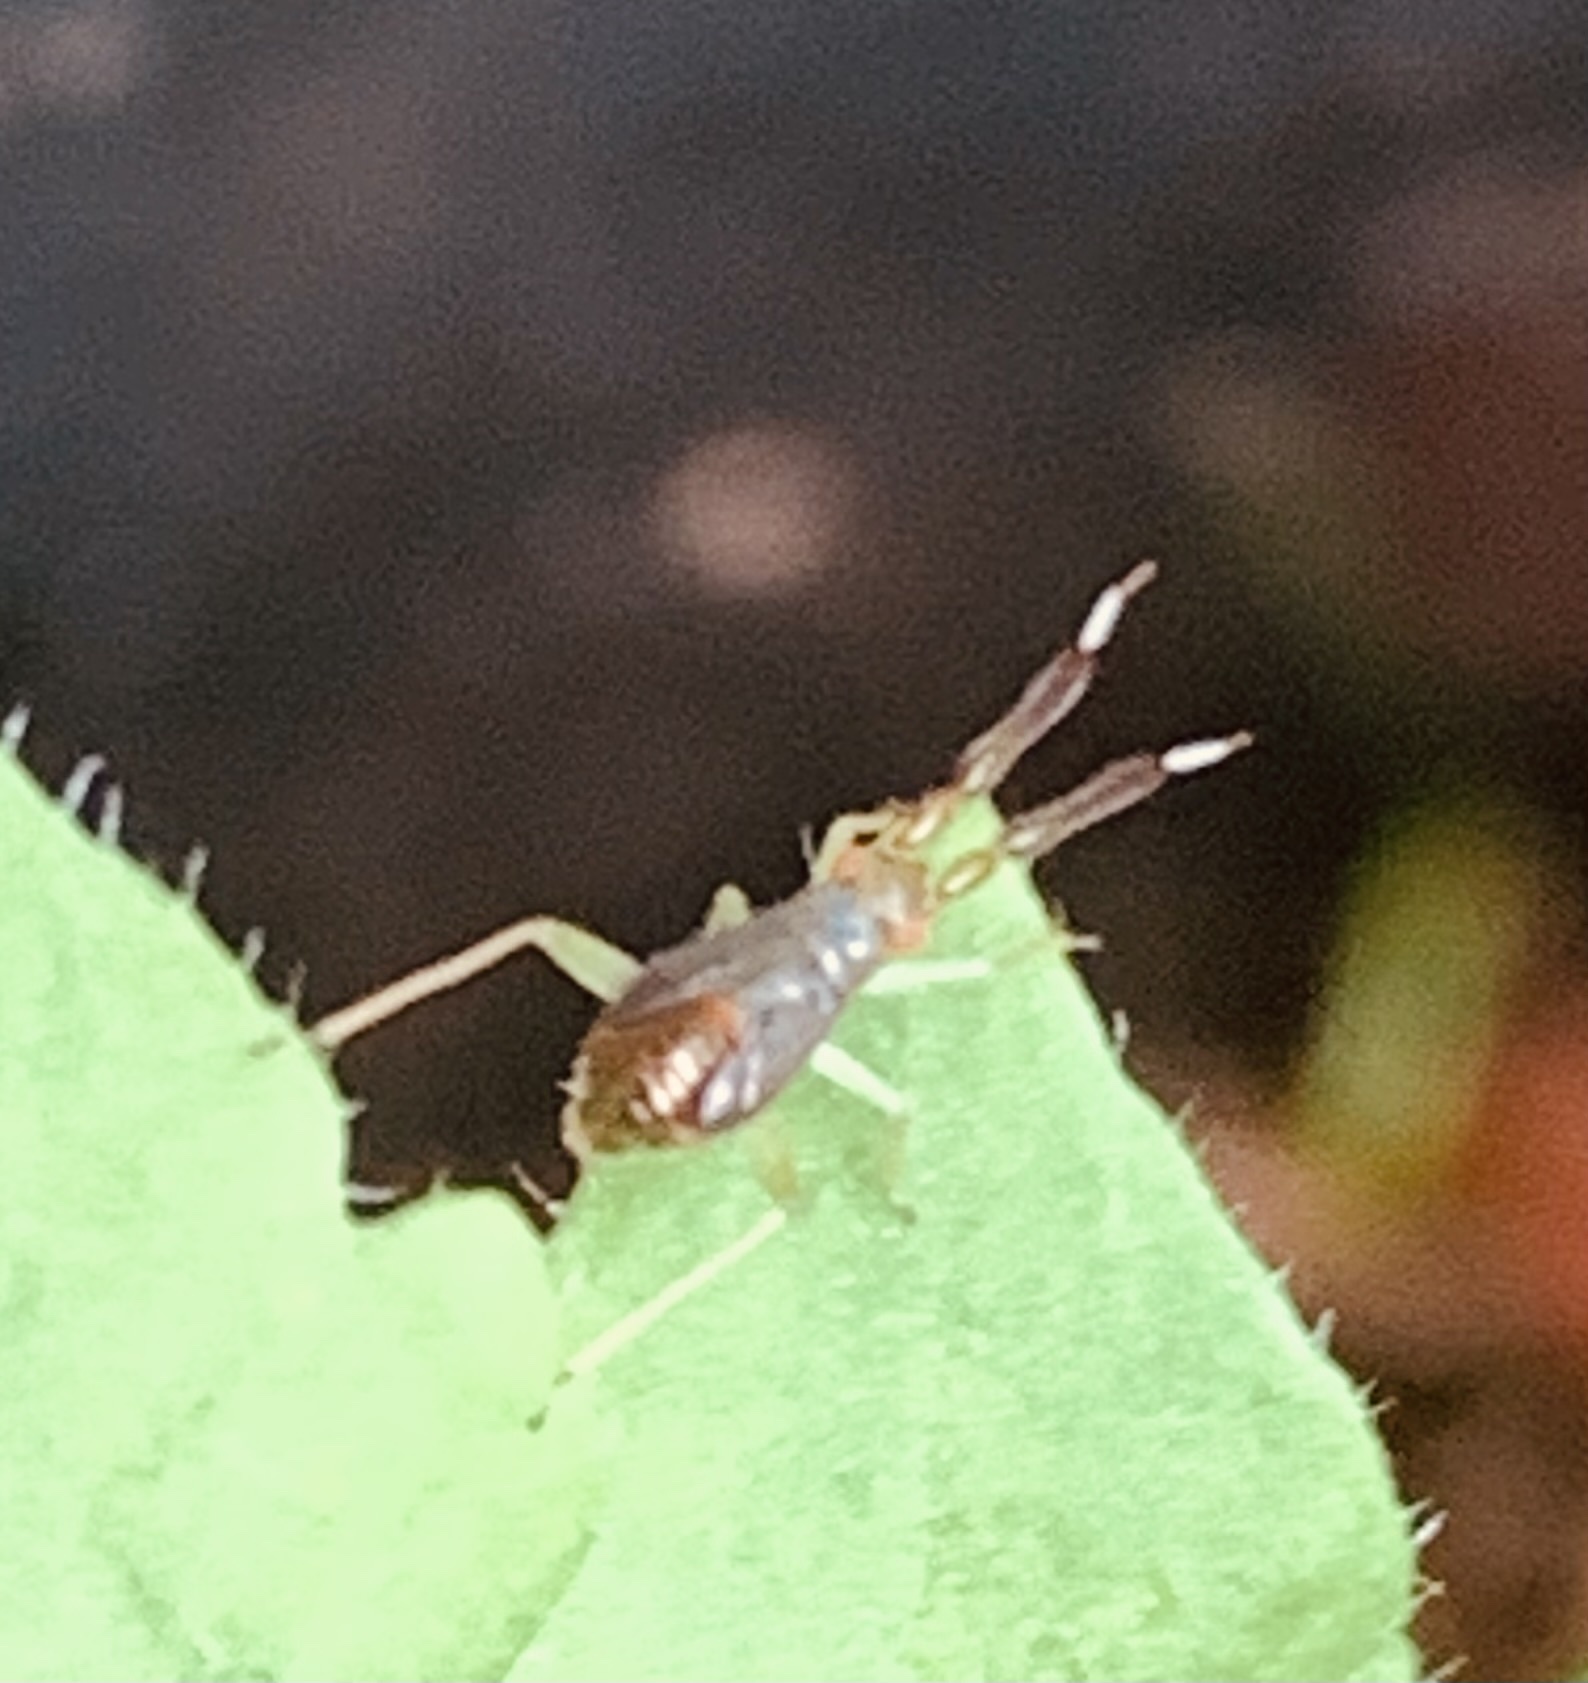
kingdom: Animalia
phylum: Arthropoda
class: Insecta
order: Hemiptera
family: Miridae
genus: Heterotoma
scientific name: Heterotoma planicornis
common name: Plant bug
